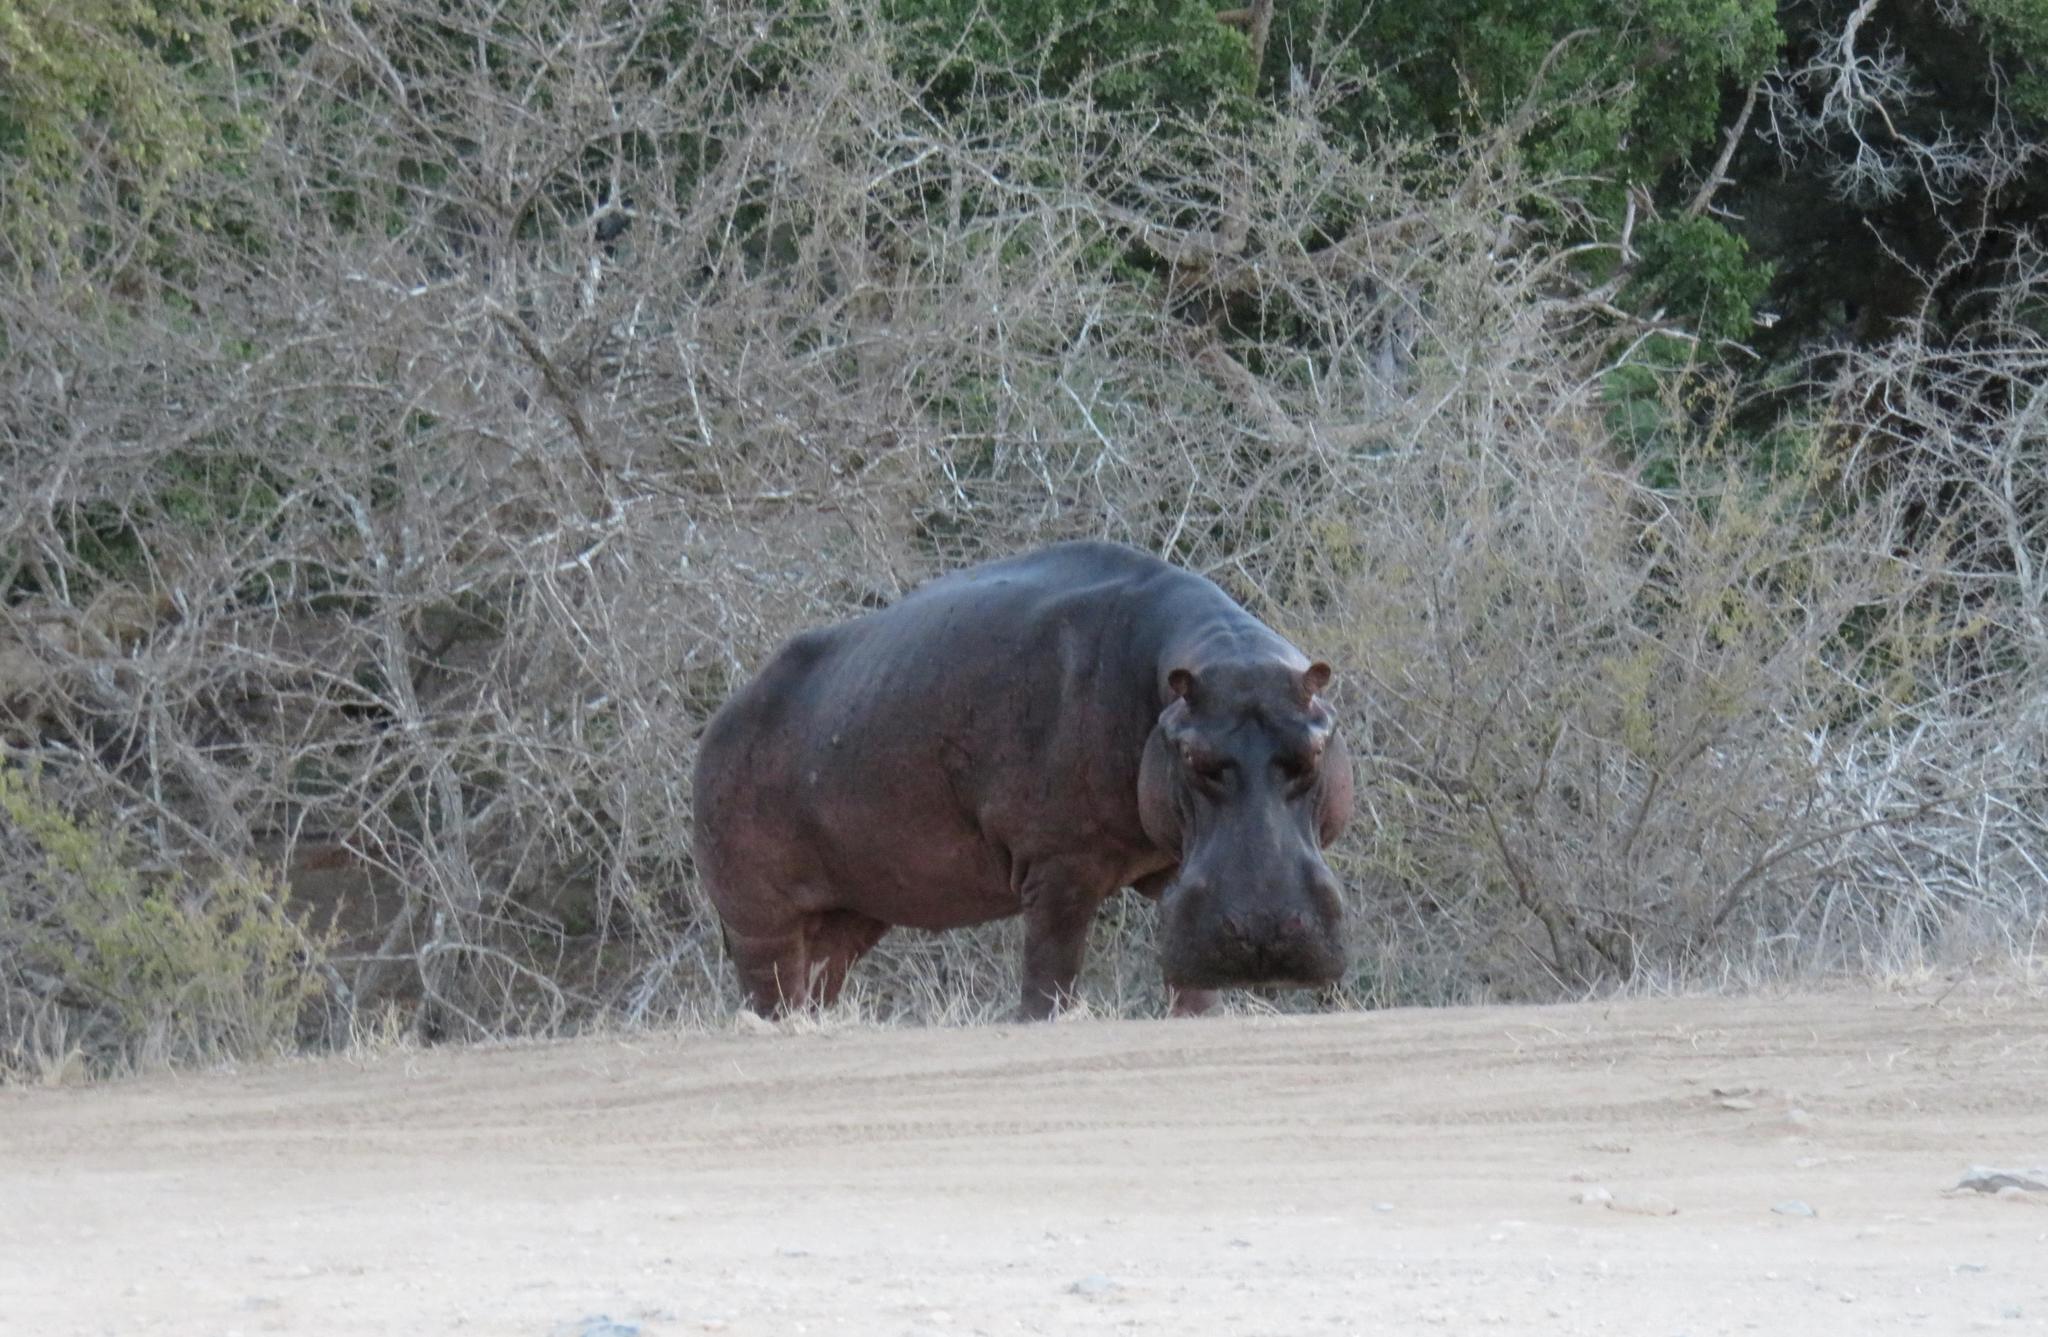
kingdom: Animalia
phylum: Chordata
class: Mammalia
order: Artiodactyla
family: Hippopotamidae
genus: Hippopotamus
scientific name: Hippopotamus amphibius
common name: Common hippopotamus
